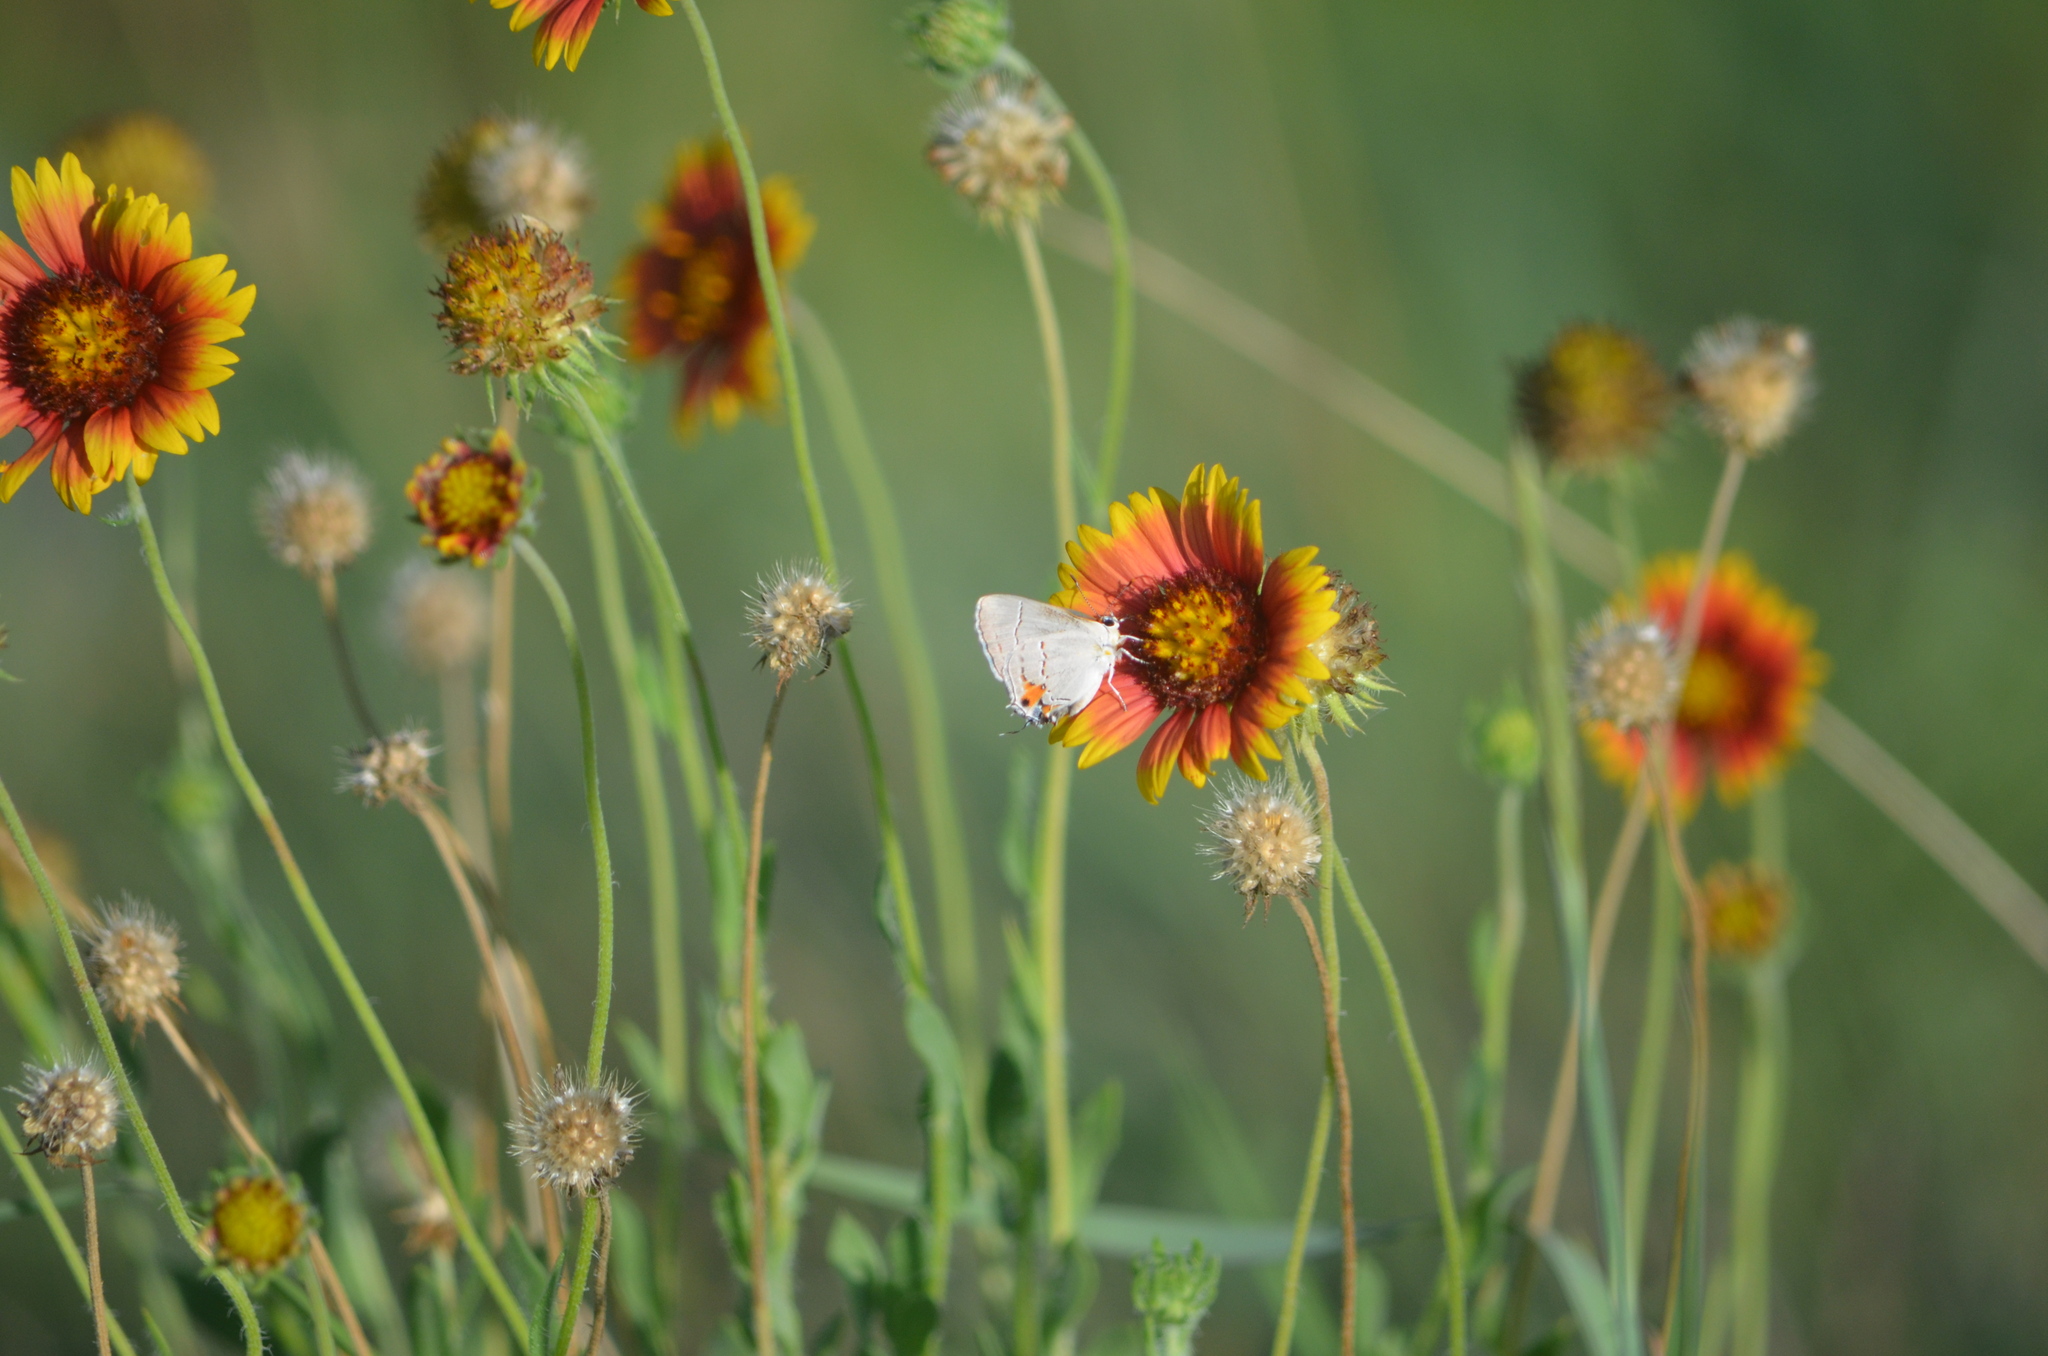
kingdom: Animalia
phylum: Arthropoda
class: Insecta
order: Lepidoptera
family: Lycaenidae
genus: Strymon
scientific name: Strymon melinus
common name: Gray hairstreak
